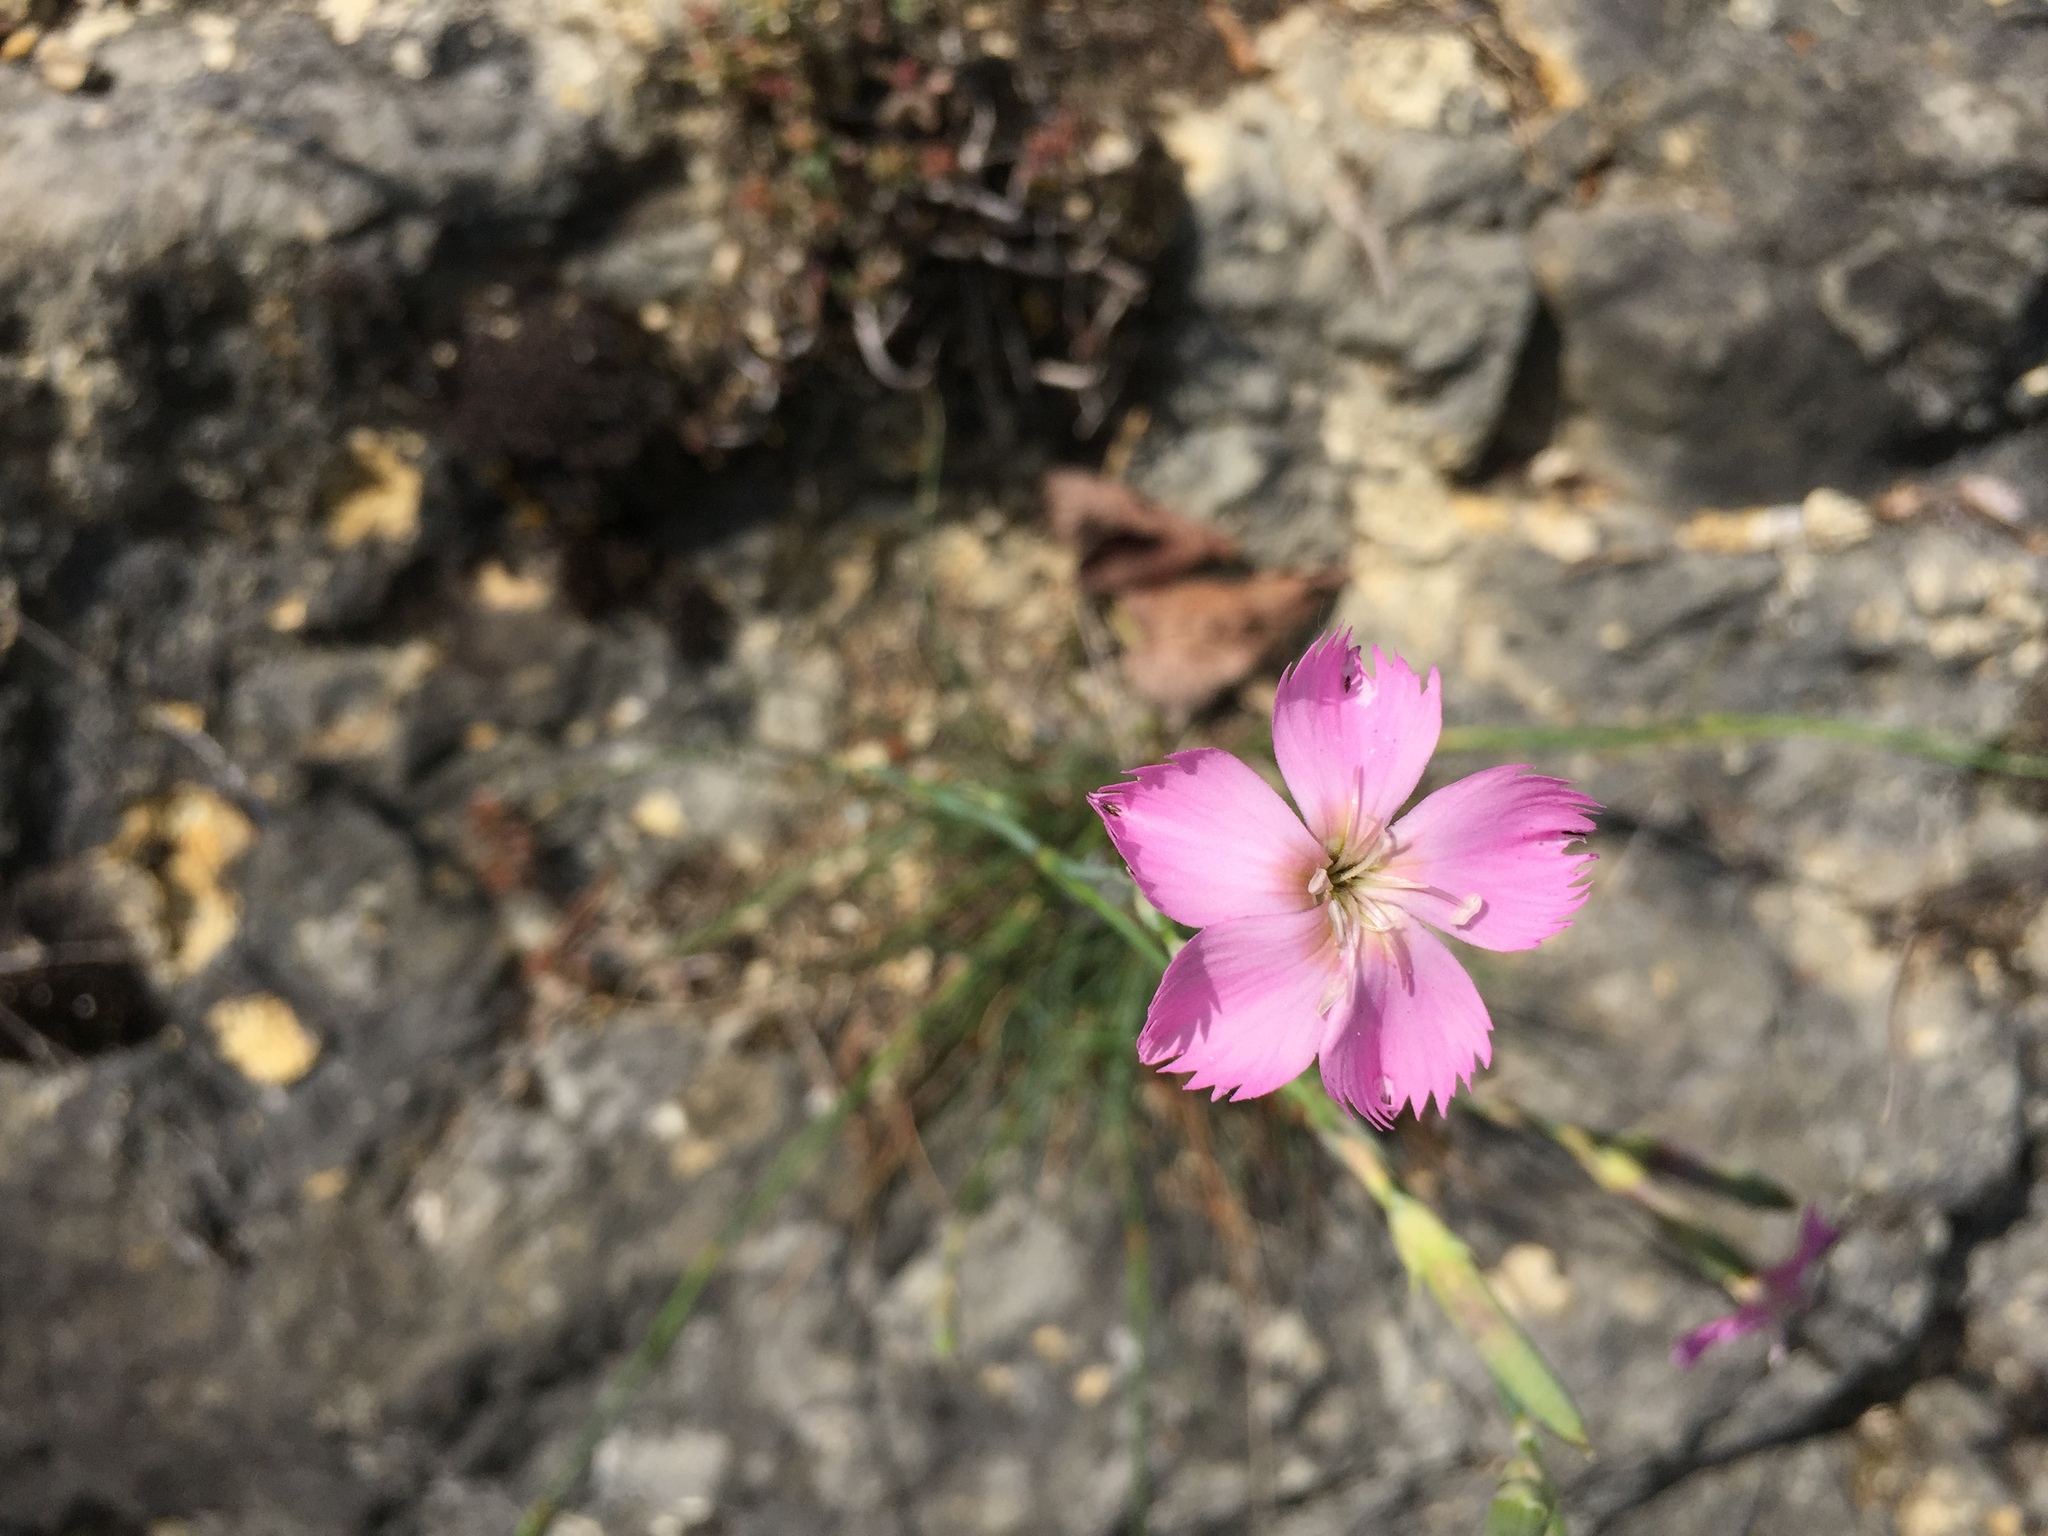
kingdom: Plantae
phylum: Tracheophyta
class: Magnoliopsida
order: Caryophyllales
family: Caryophyllaceae
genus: Dianthus
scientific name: Dianthus sylvestris
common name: Wood pink
